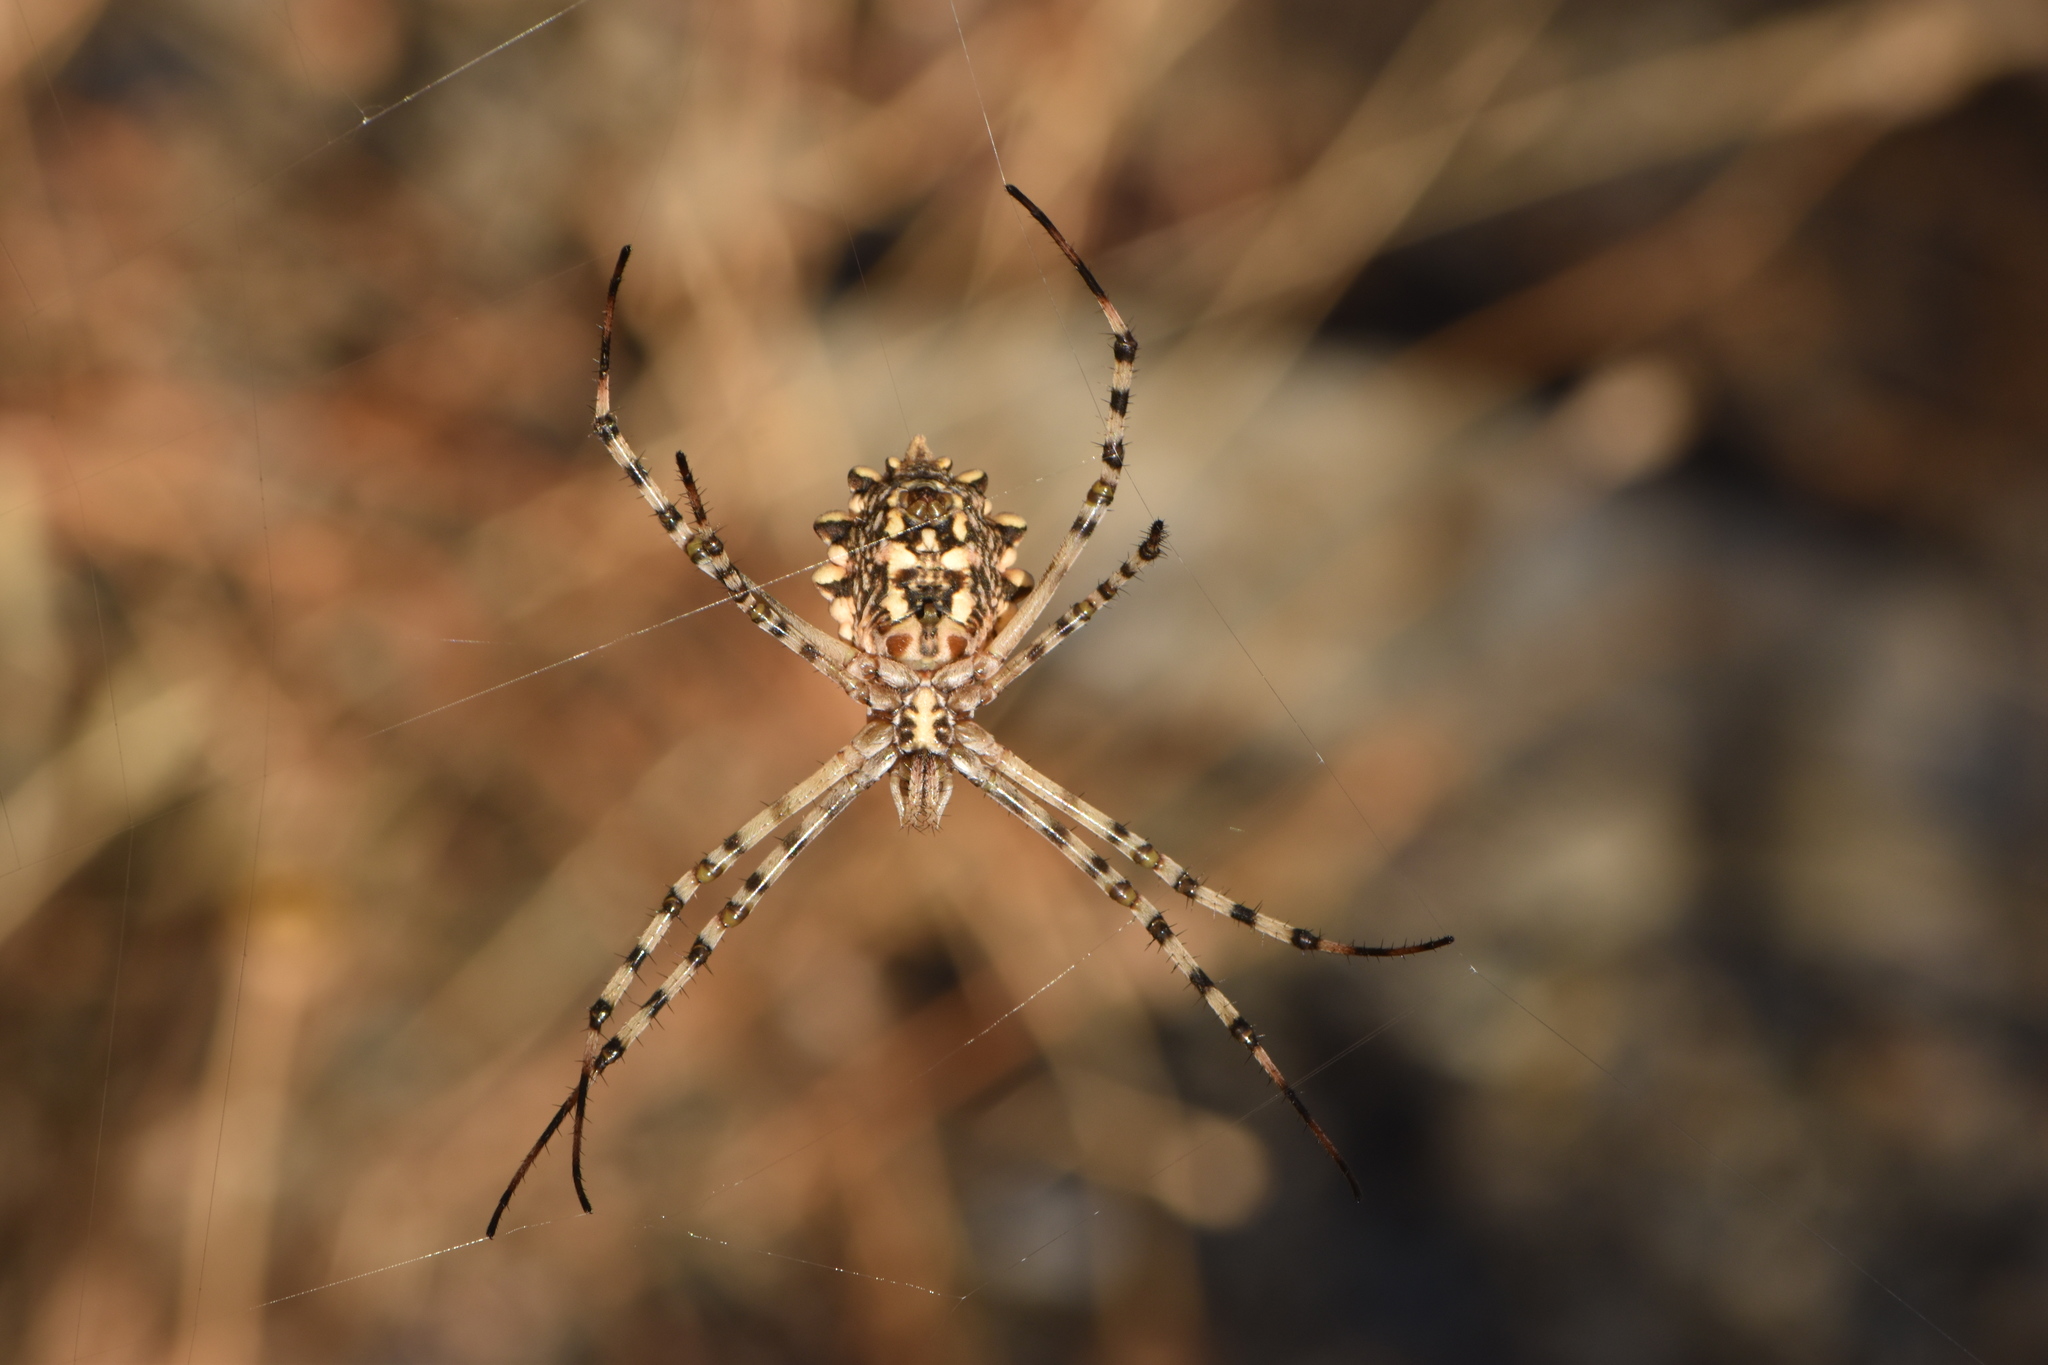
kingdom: Animalia
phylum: Arthropoda
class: Arachnida
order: Araneae
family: Araneidae
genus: Argiope
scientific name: Argiope lobata
